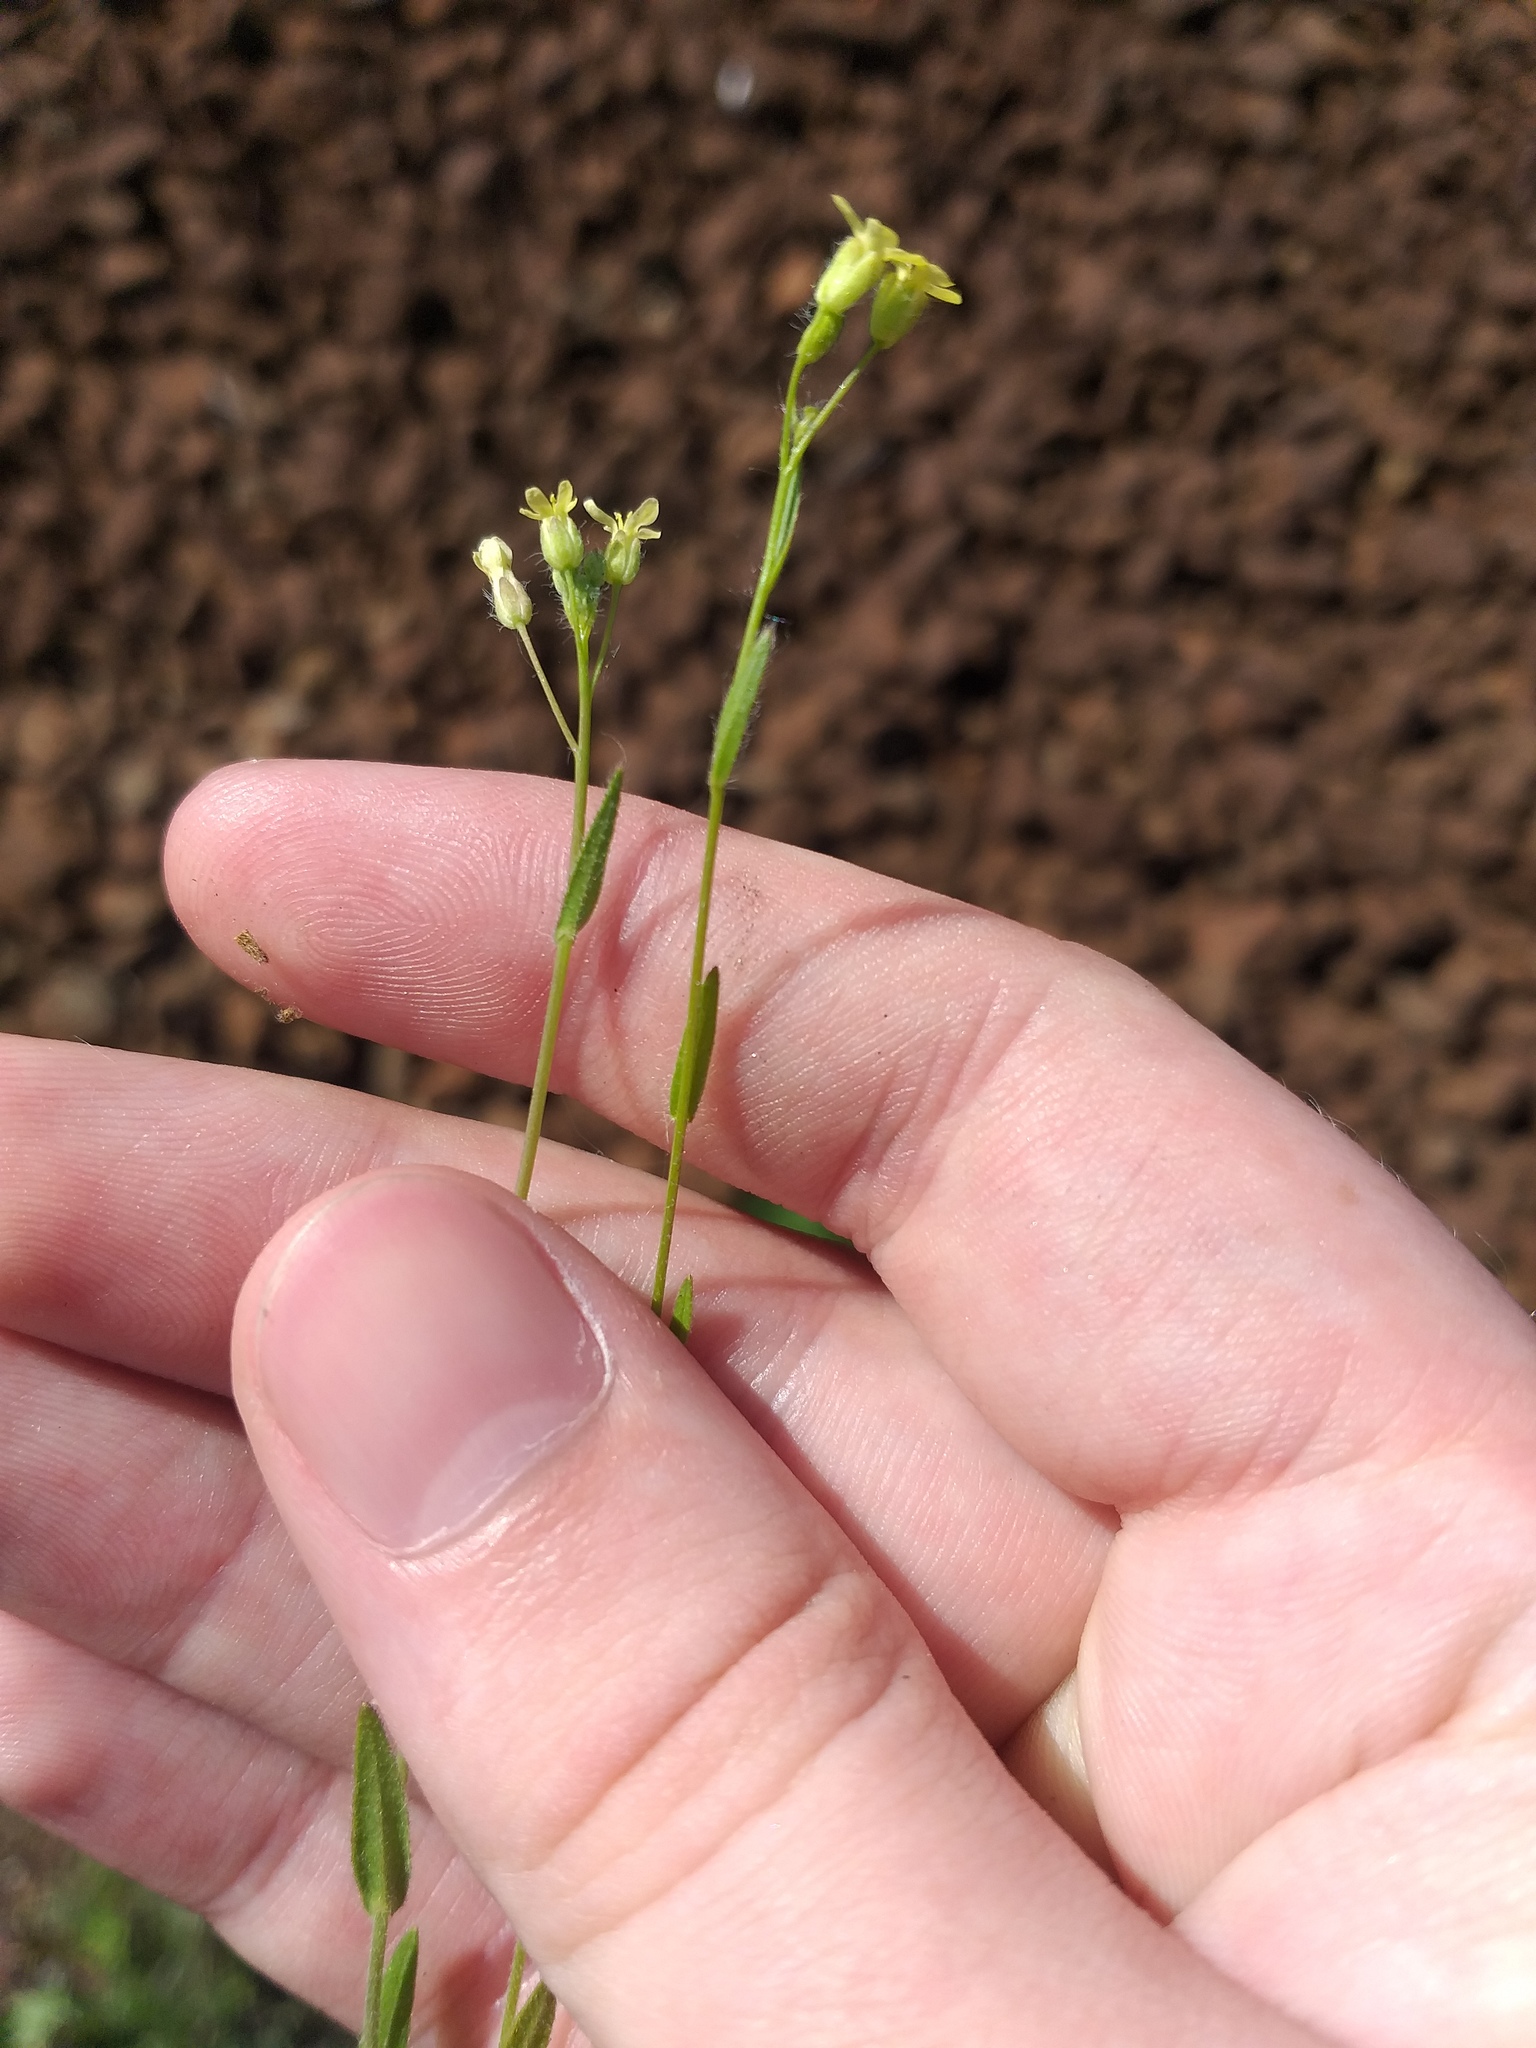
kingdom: Plantae
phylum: Tracheophyta
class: Magnoliopsida
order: Brassicales
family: Brassicaceae
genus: Camelina
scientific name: Camelina microcarpa
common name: Lesser gold-of-pleasure
